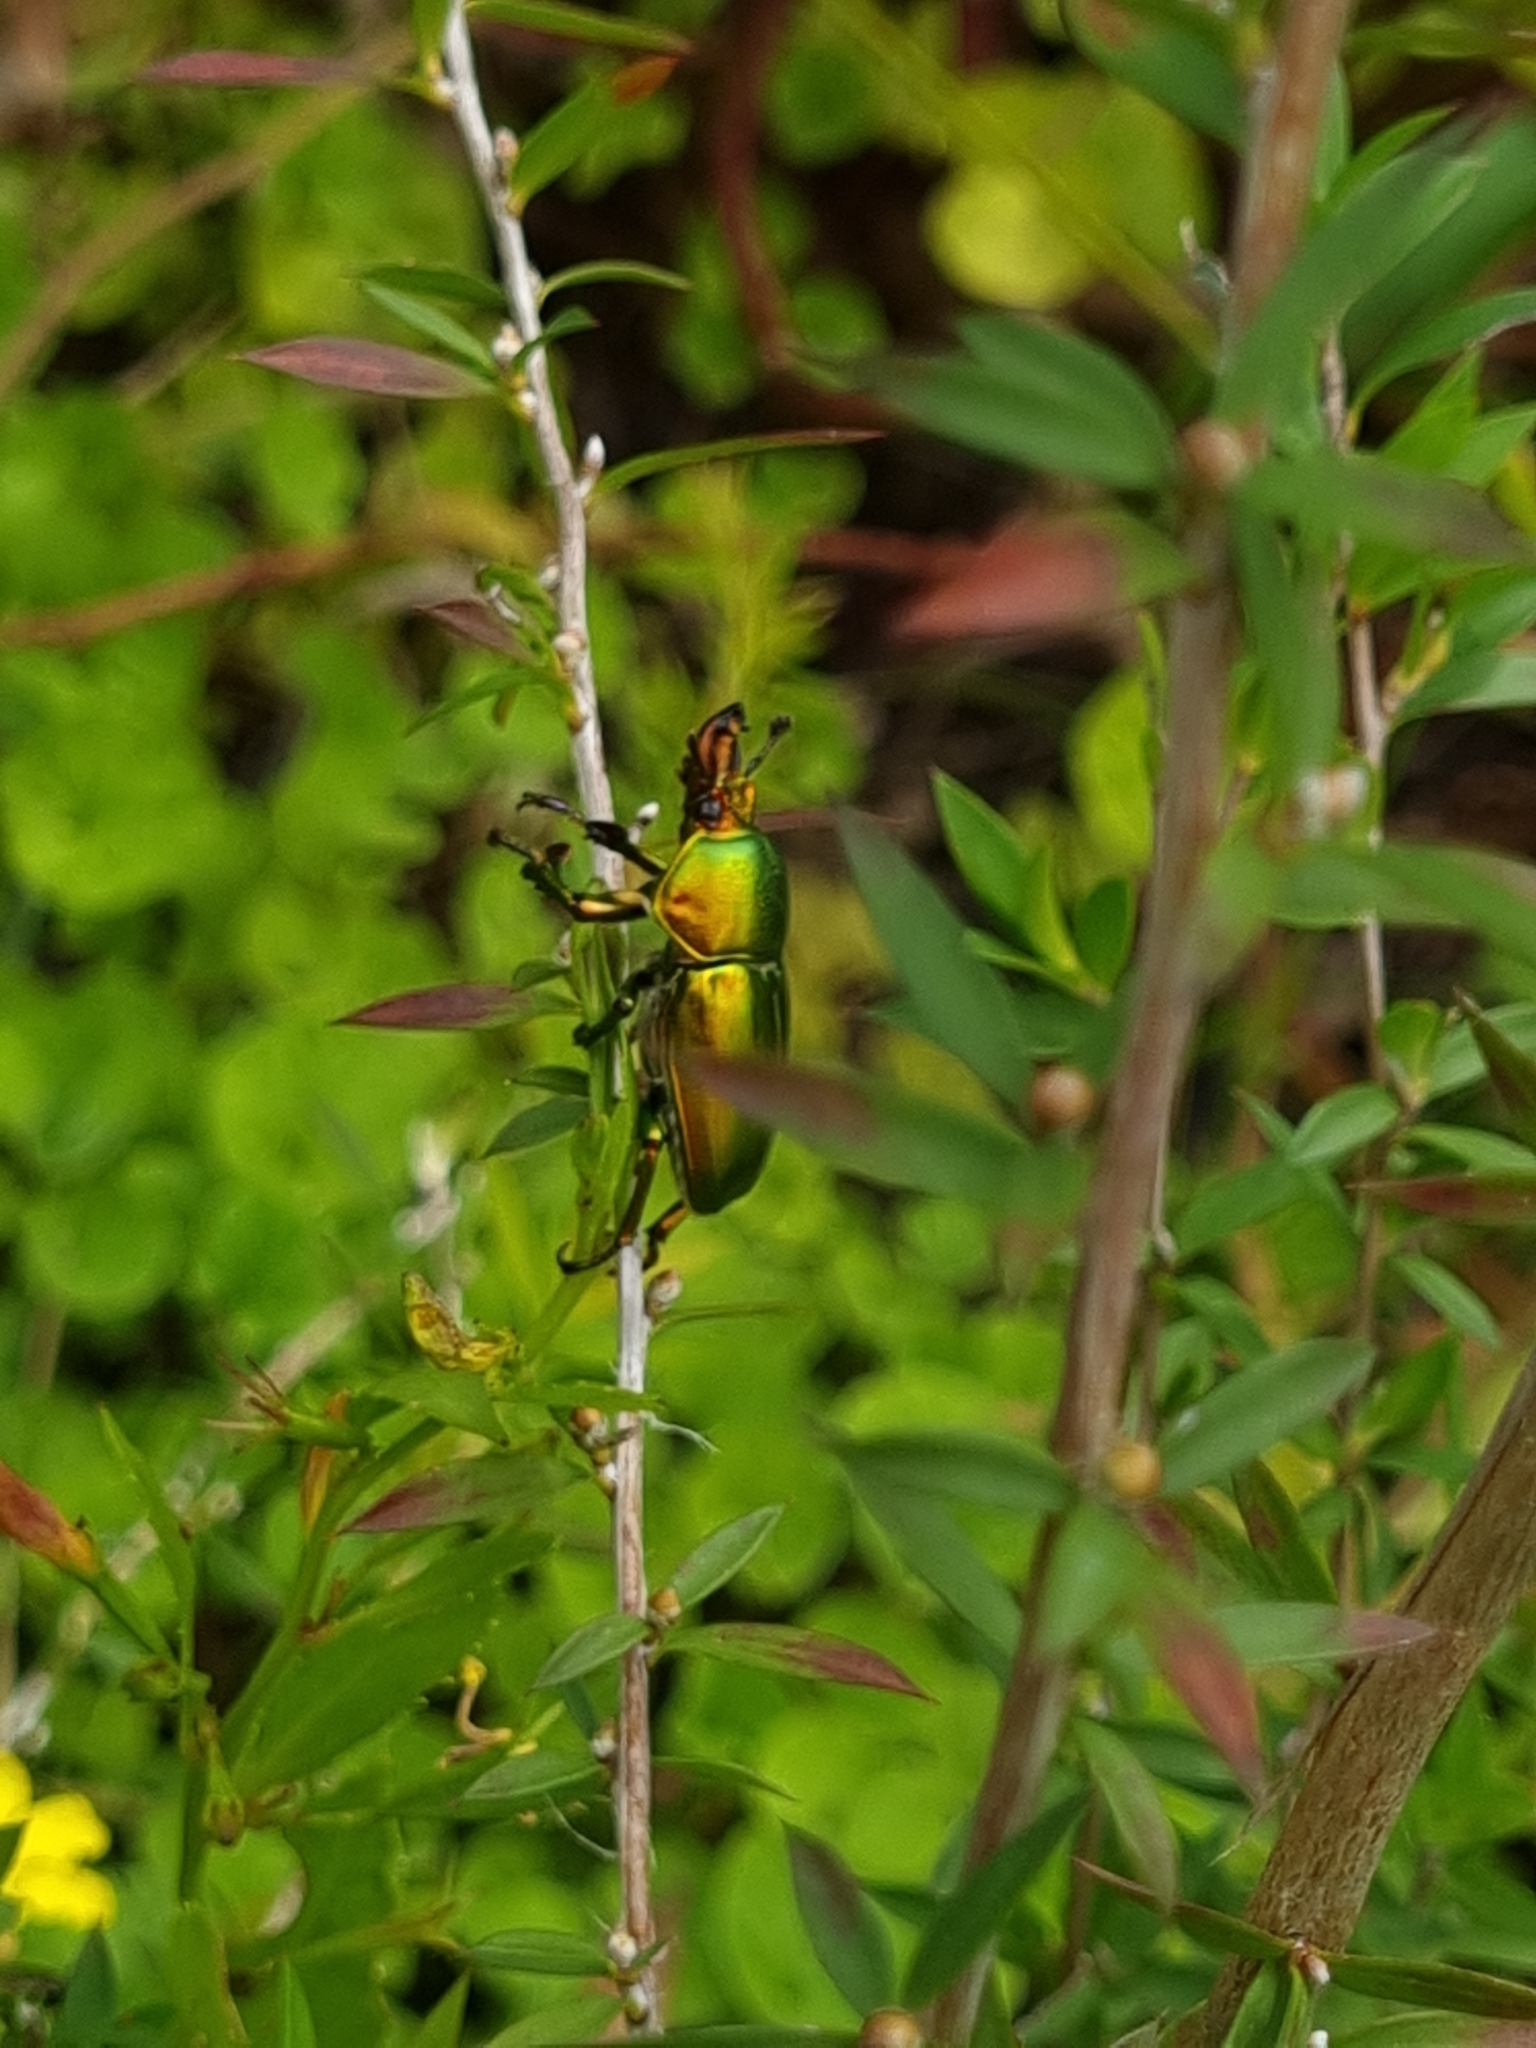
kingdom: Animalia
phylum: Arthropoda
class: Insecta
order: Coleoptera
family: Lucanidae
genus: Lamprima
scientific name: Lamprima aurata
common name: Golden stag beetle
